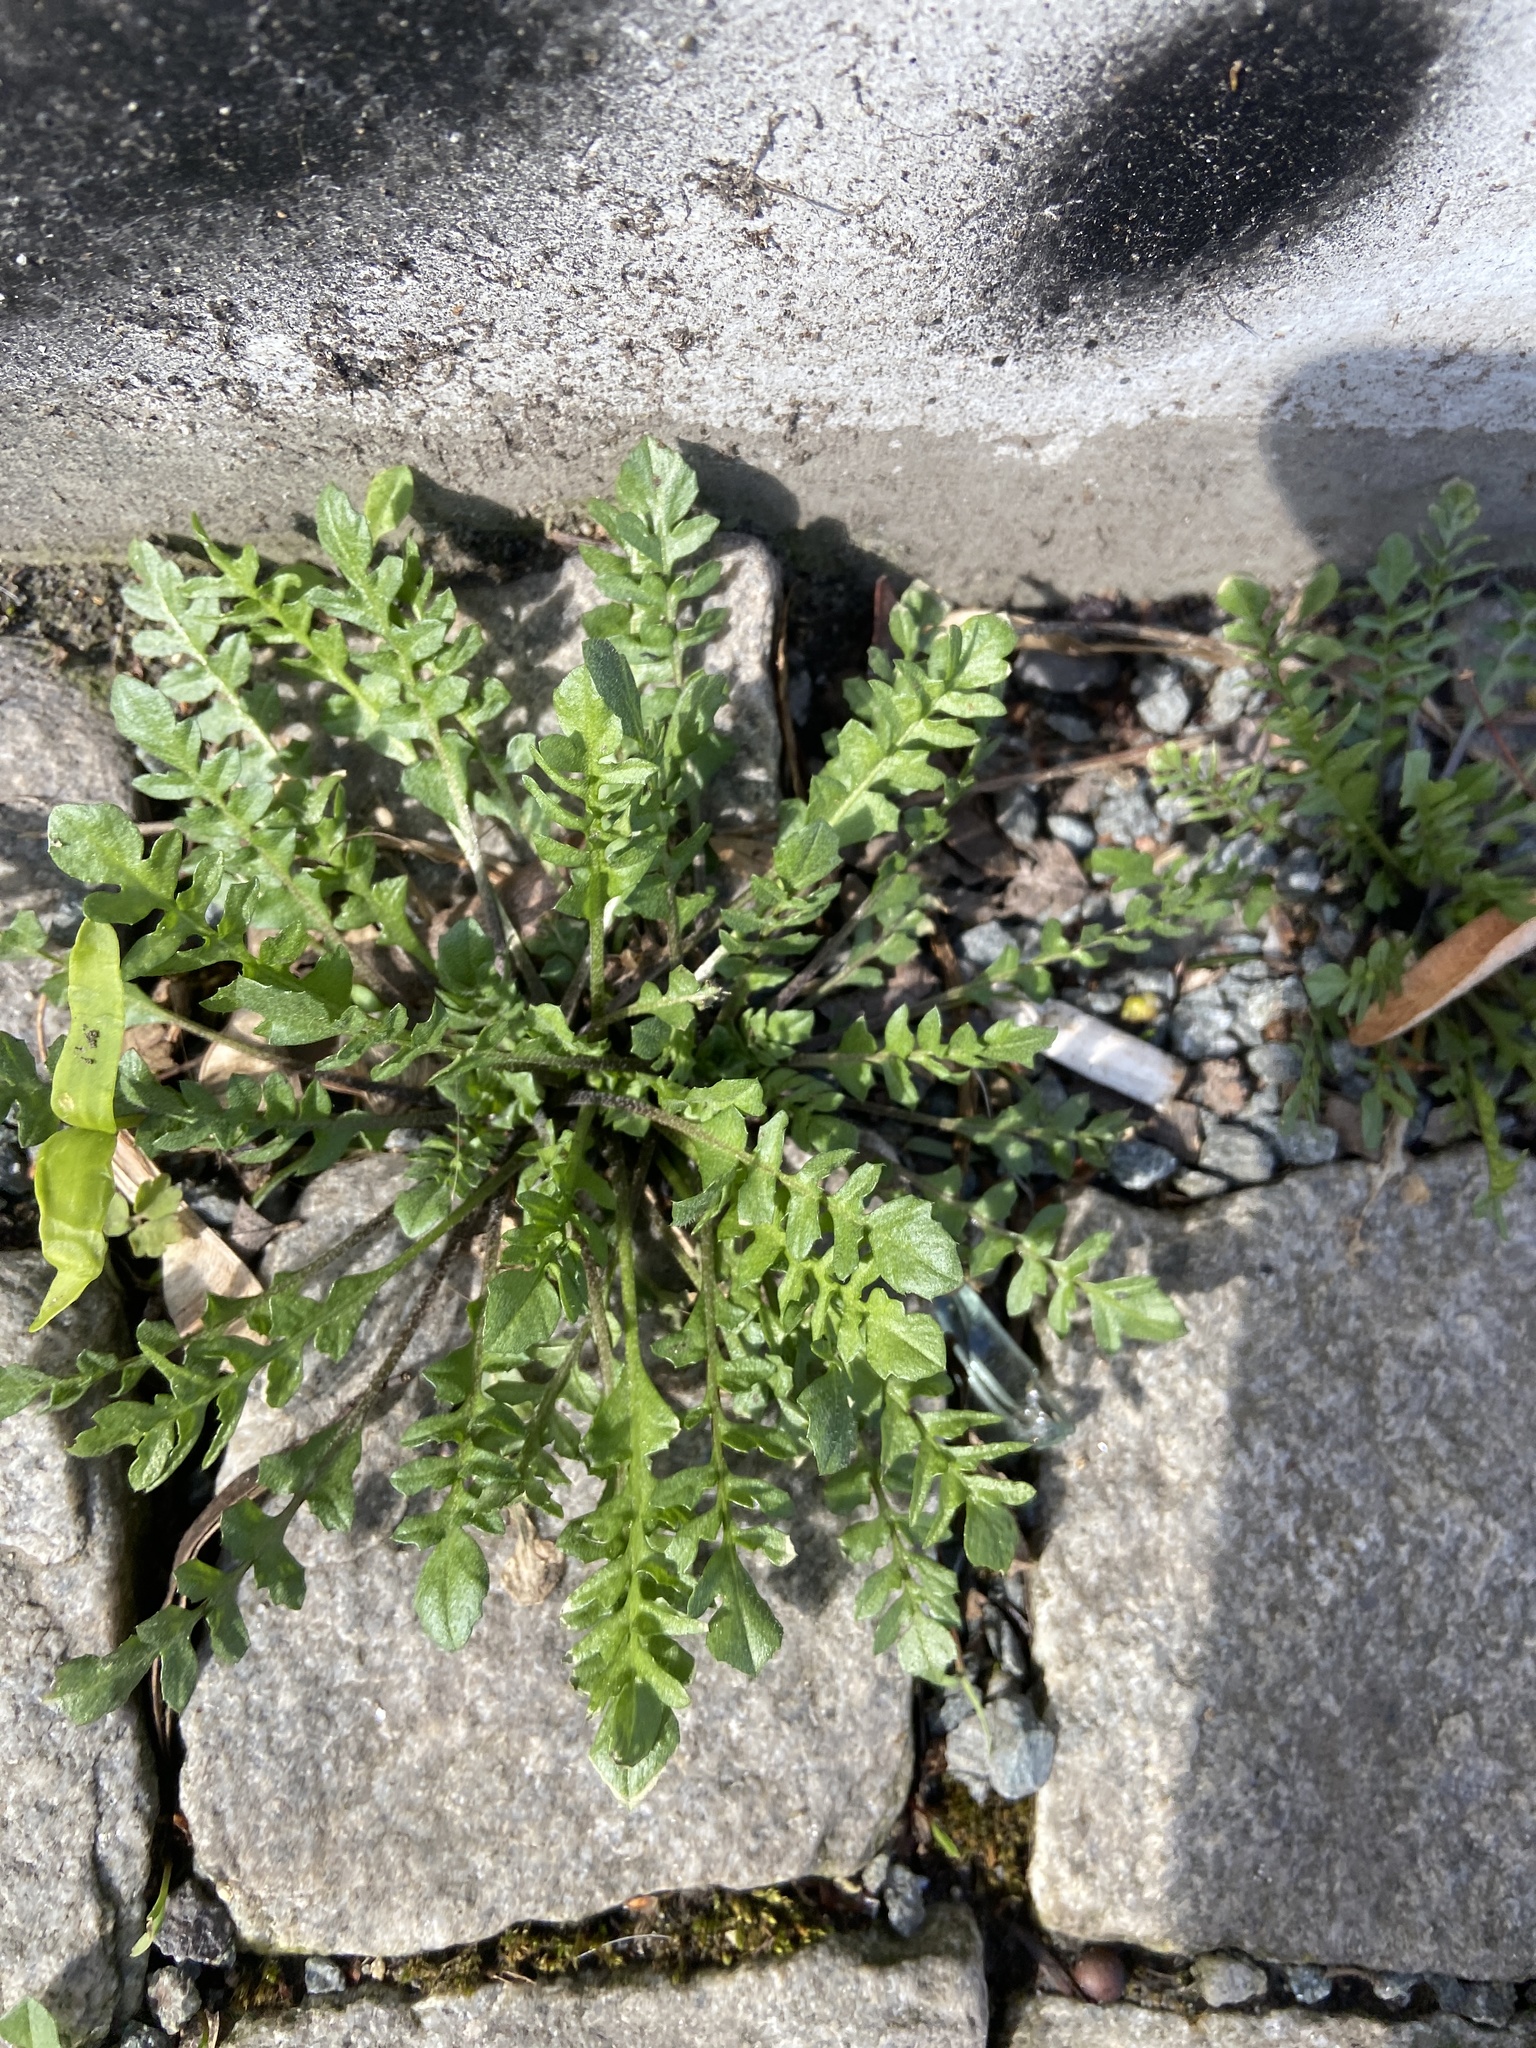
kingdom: Plantae
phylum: Tracheophyta
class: Magnoliopsida
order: Brassicales
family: Brassicaceae
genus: Capsella
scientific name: Capsella bursa-pastoris
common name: Shepherd's purse
